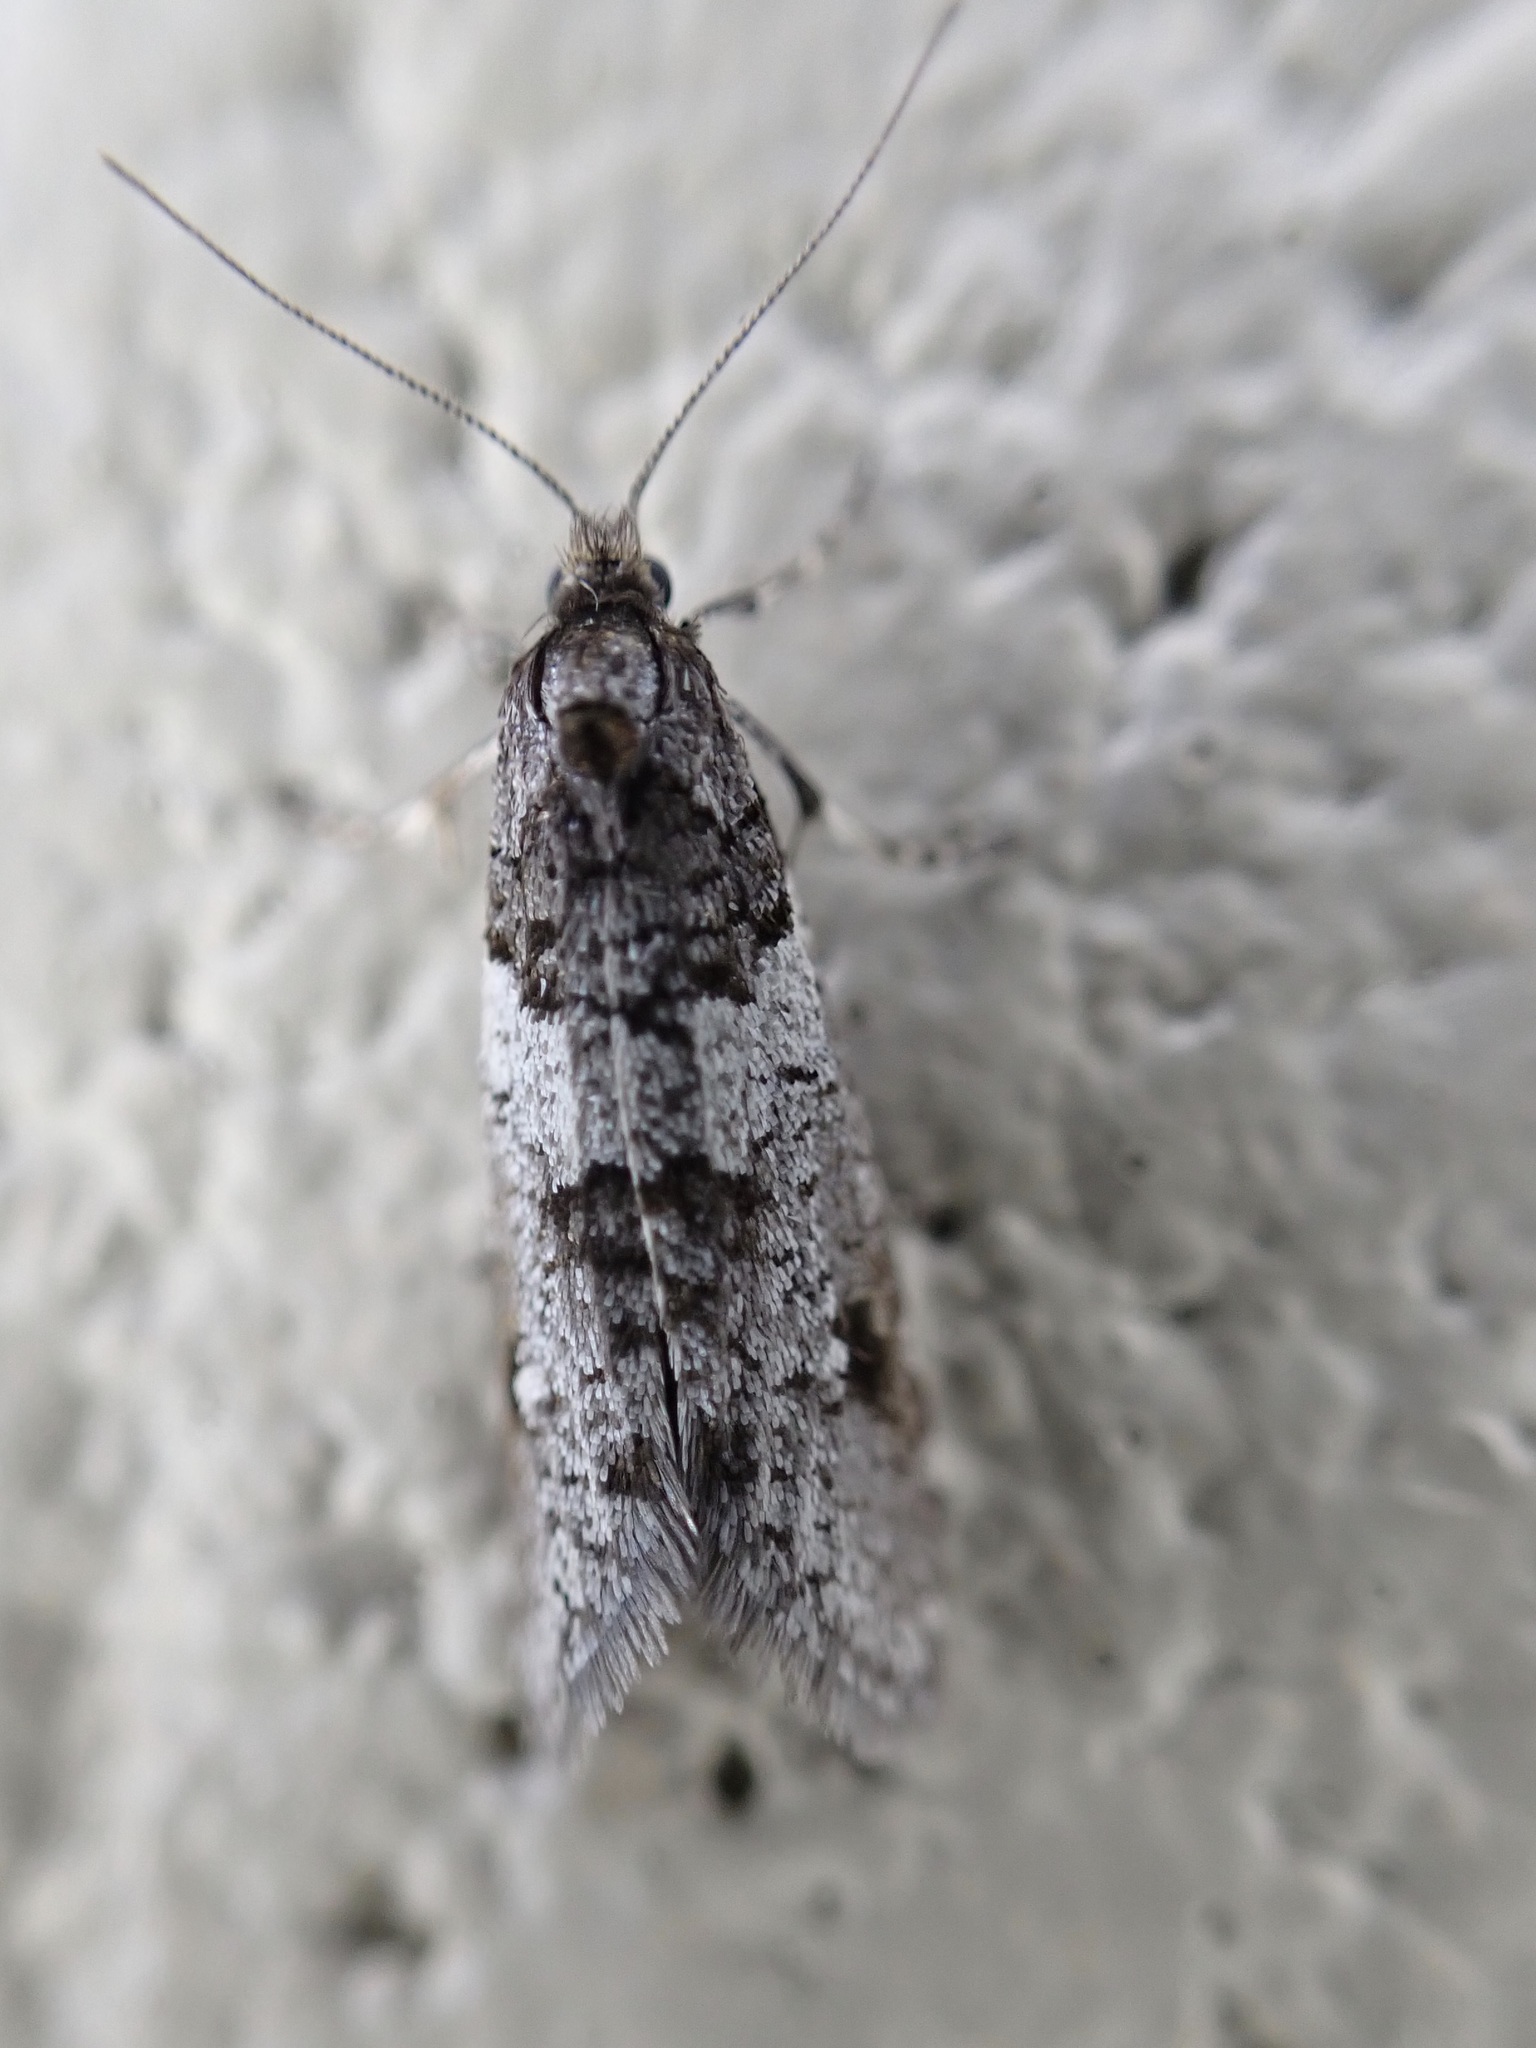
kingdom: Animalia
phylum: Arthropoda
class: Insecta
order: Lepidoptera
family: Psychidae
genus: Lepidoscia
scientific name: Lepidoscia heliochares
